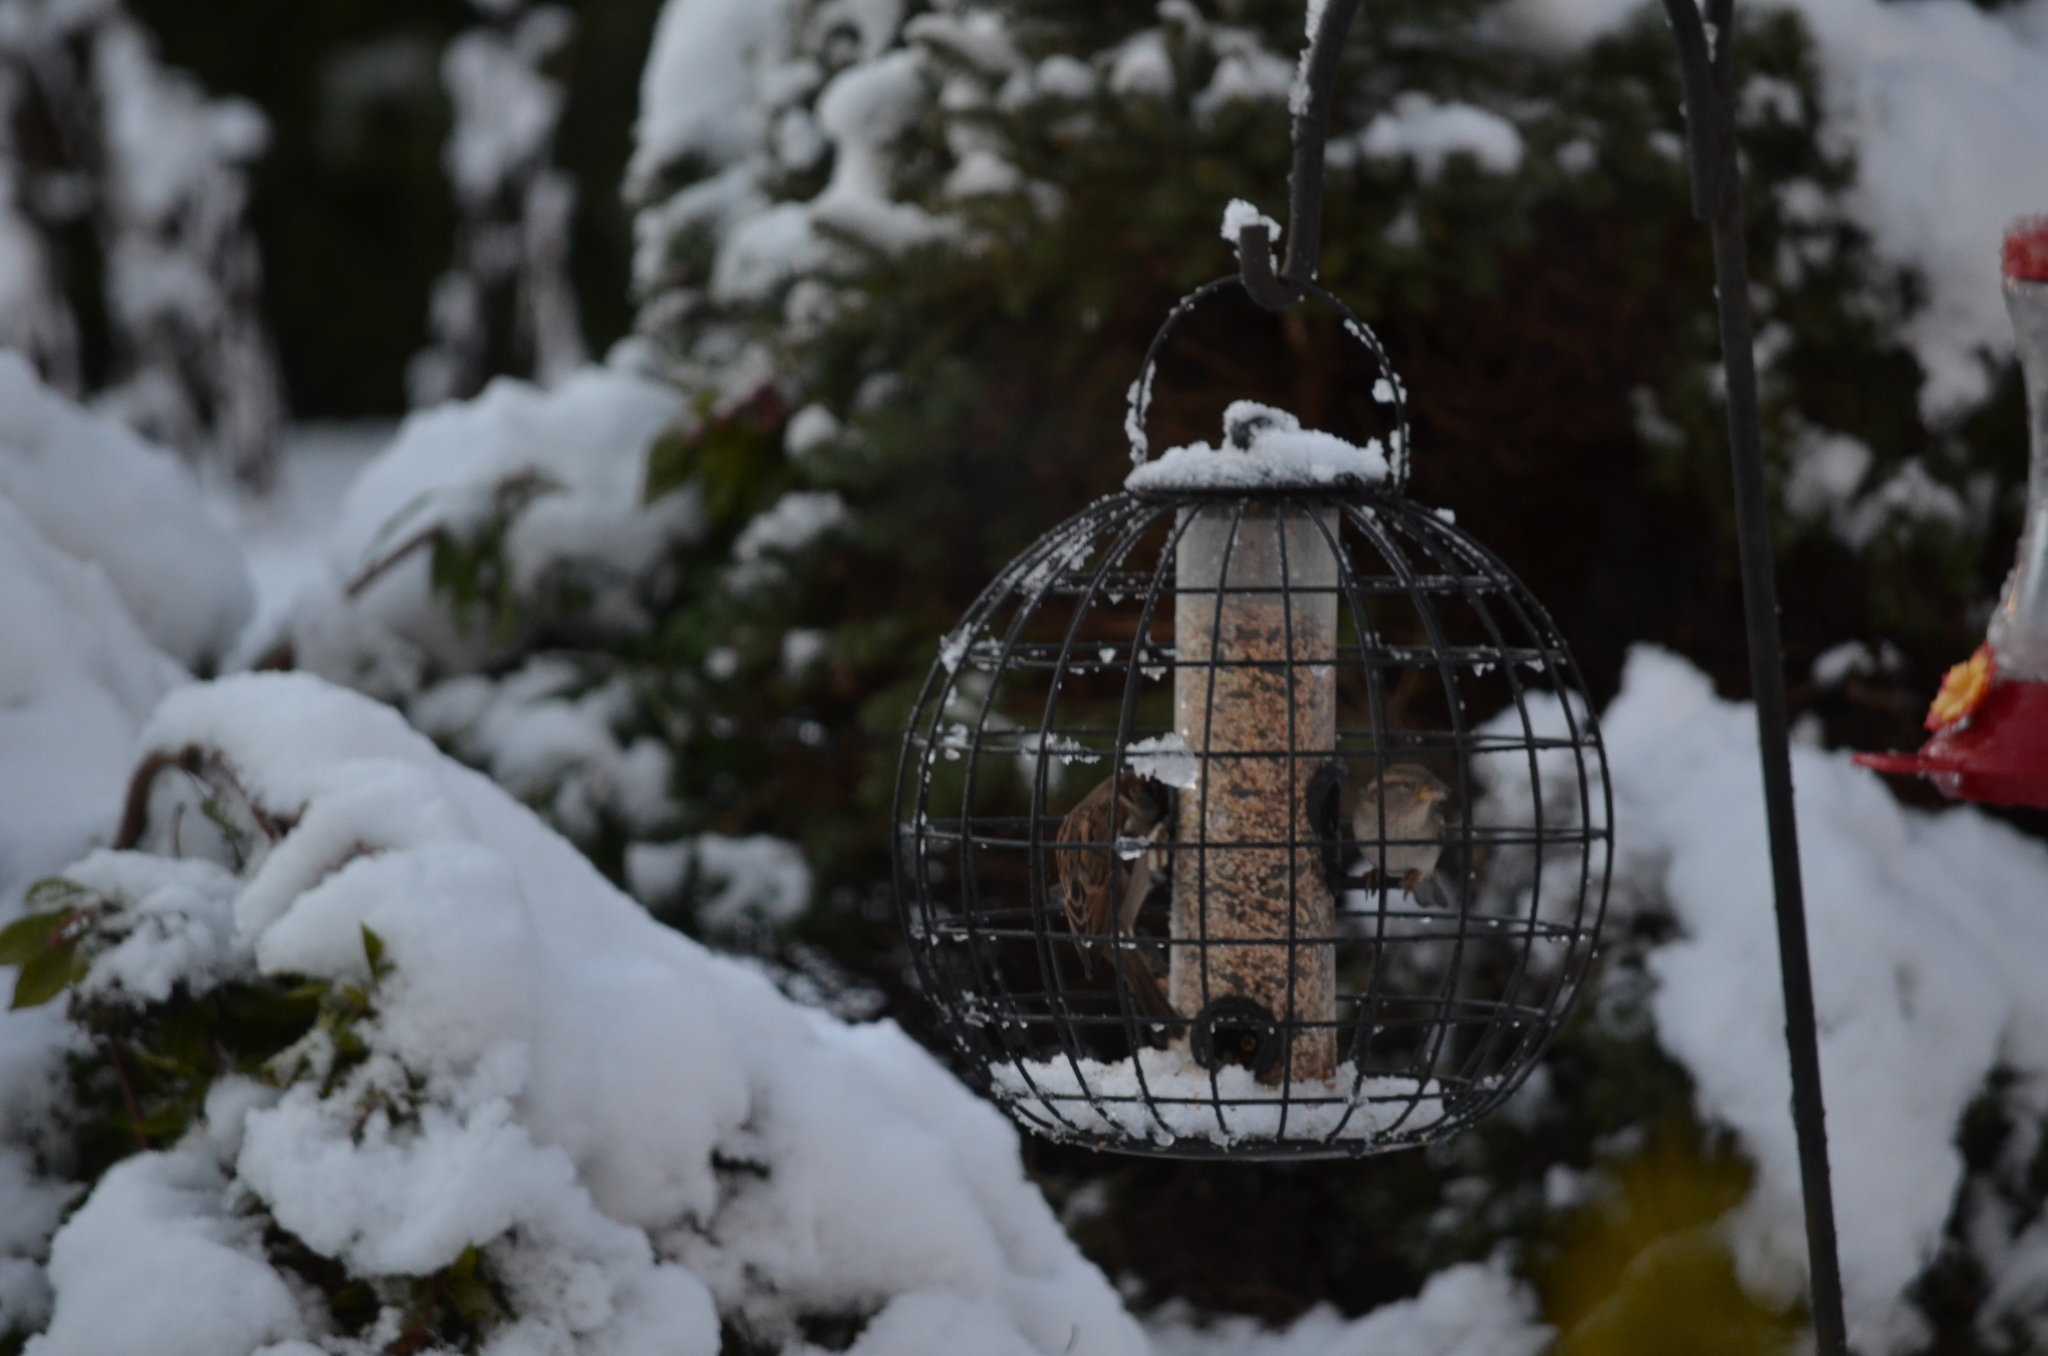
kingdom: Animalia
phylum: Chordata
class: Aves
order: Passeriformes
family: Passeridae
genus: Passer
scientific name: Passer domesticus
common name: House sparrow
